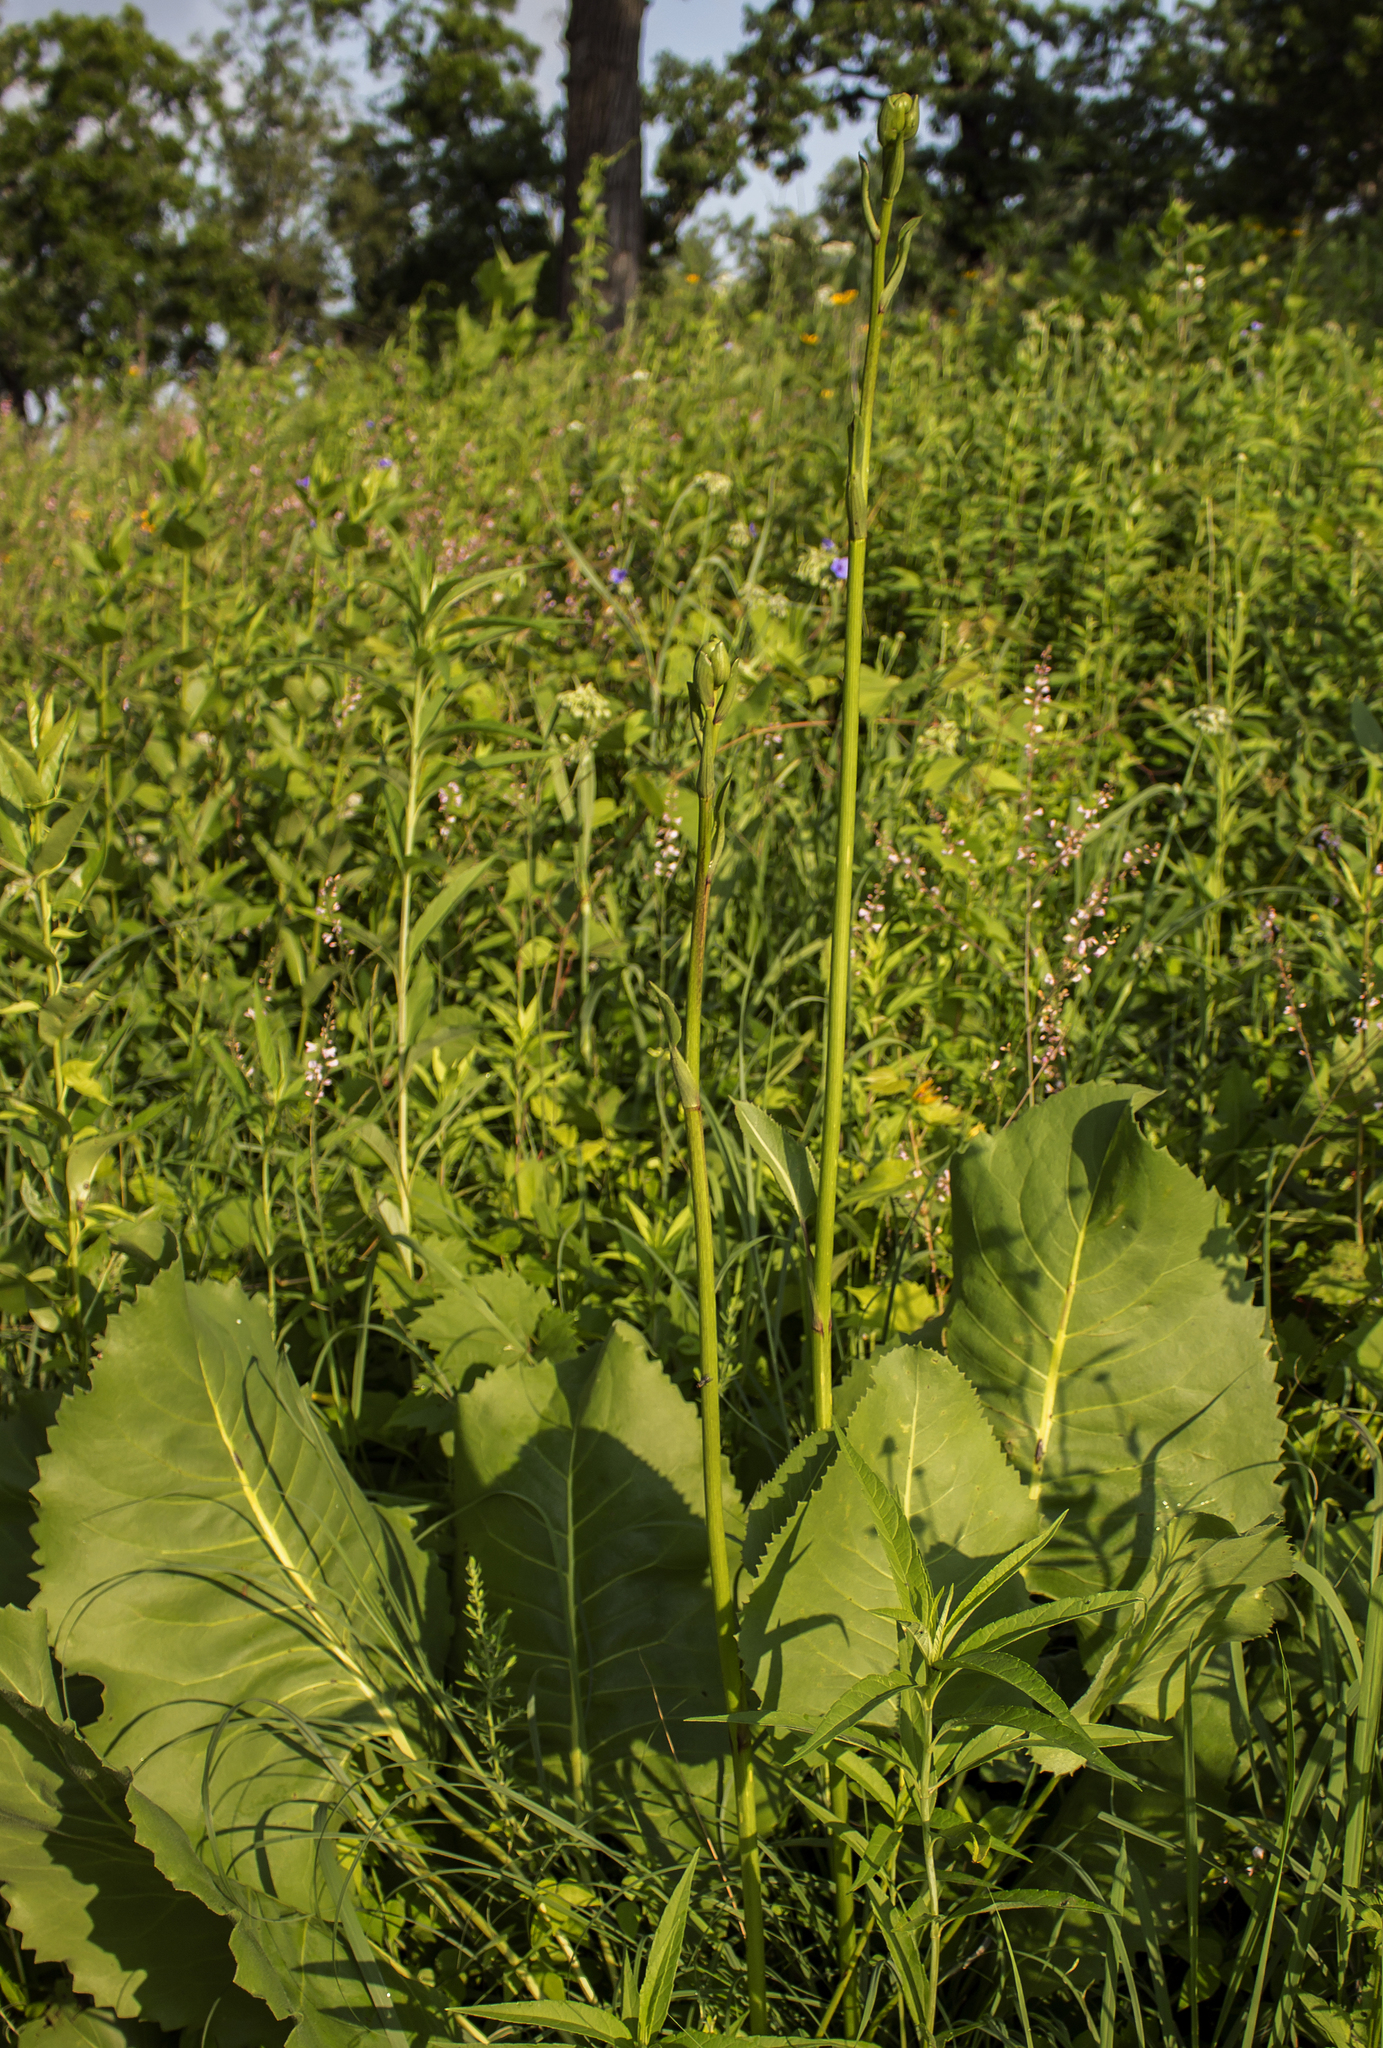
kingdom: Plantae
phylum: Tracheophyta
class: Magnoliopsida
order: Asterales
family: Asteraceae
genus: Silphium
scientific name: Silphium terebinthinaceum
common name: Basal-leaf rosinweed
